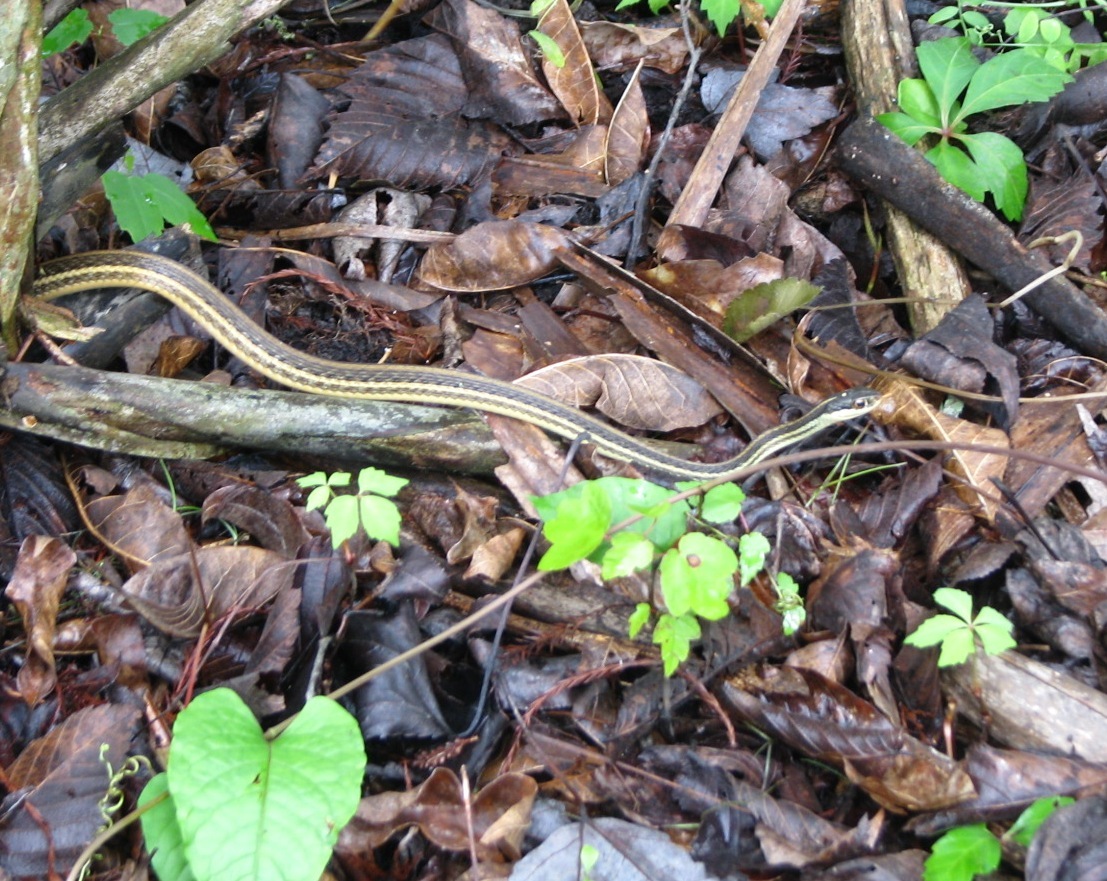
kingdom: Animalia
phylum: Chordata
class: Squamata
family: Colubridae
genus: Thamnophis
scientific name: Thamnophis proximus
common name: Western ribbon snake
